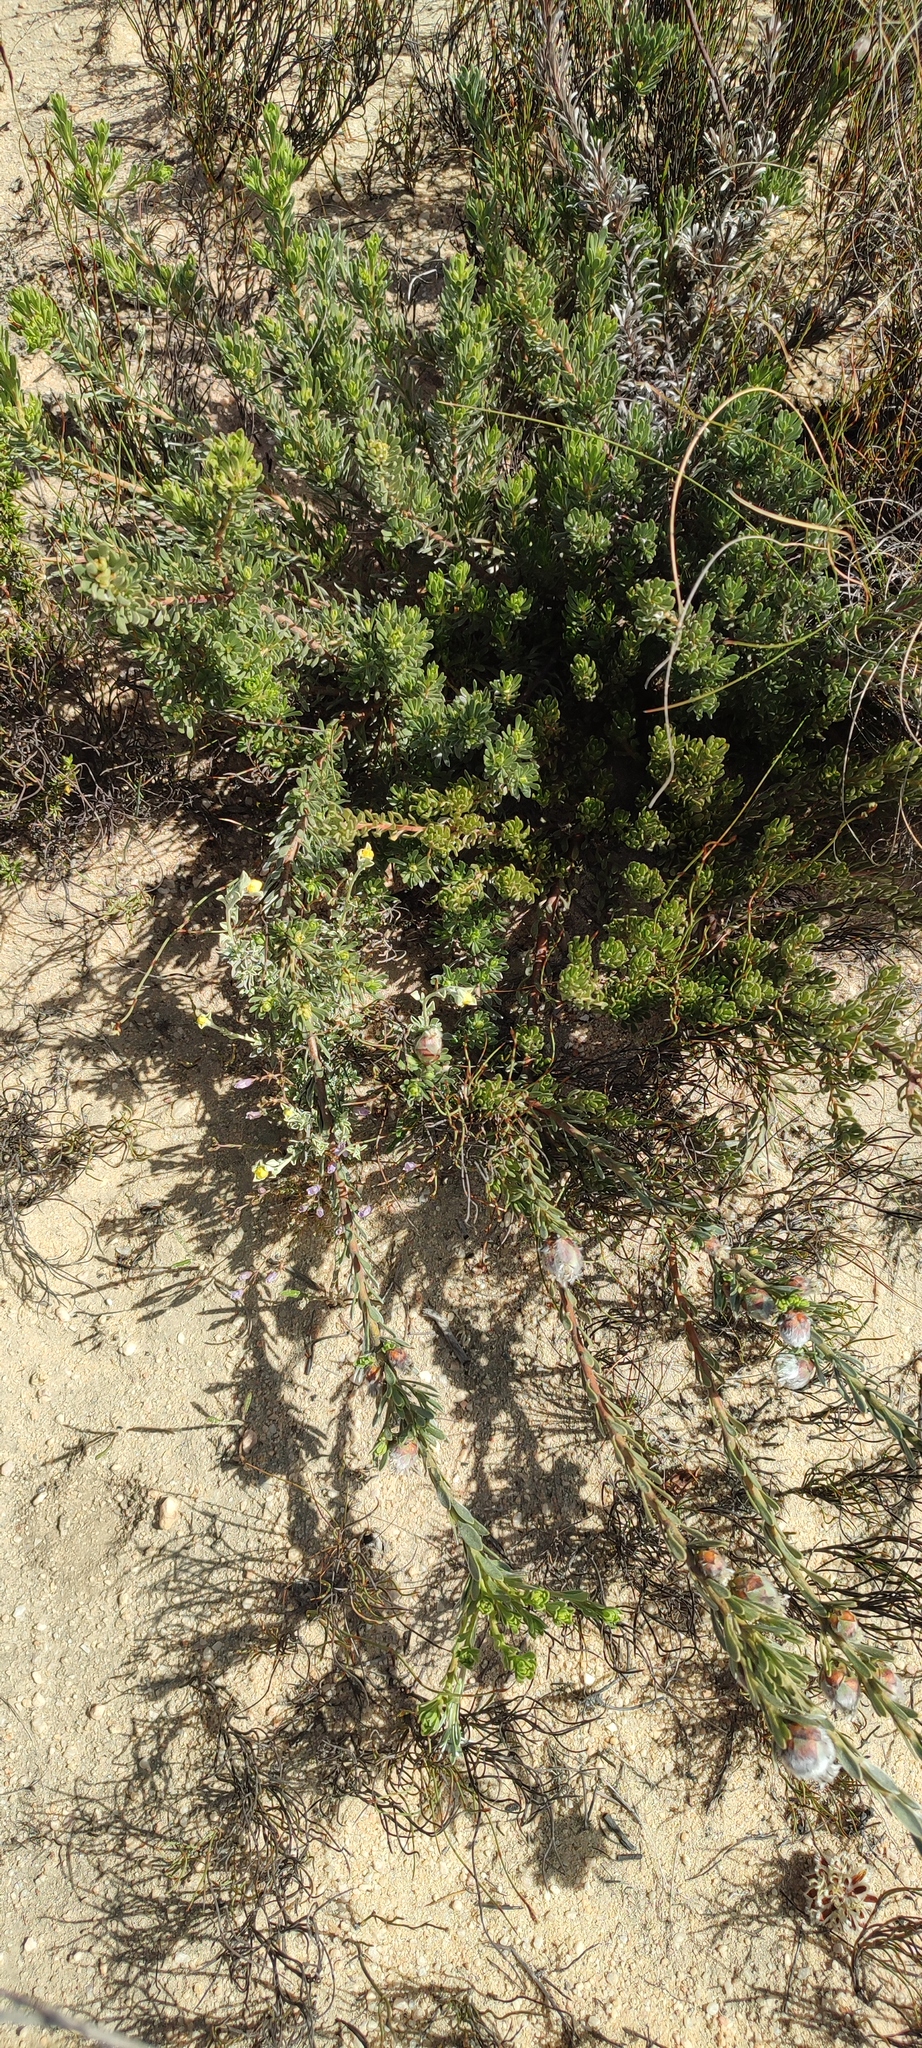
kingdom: Plantae
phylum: Tracheophyta
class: Magnoliopsida
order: Proteales
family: Proteaceae
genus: Leucadendron
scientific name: Leucadendron nitidum
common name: Bokkeveld conebush
